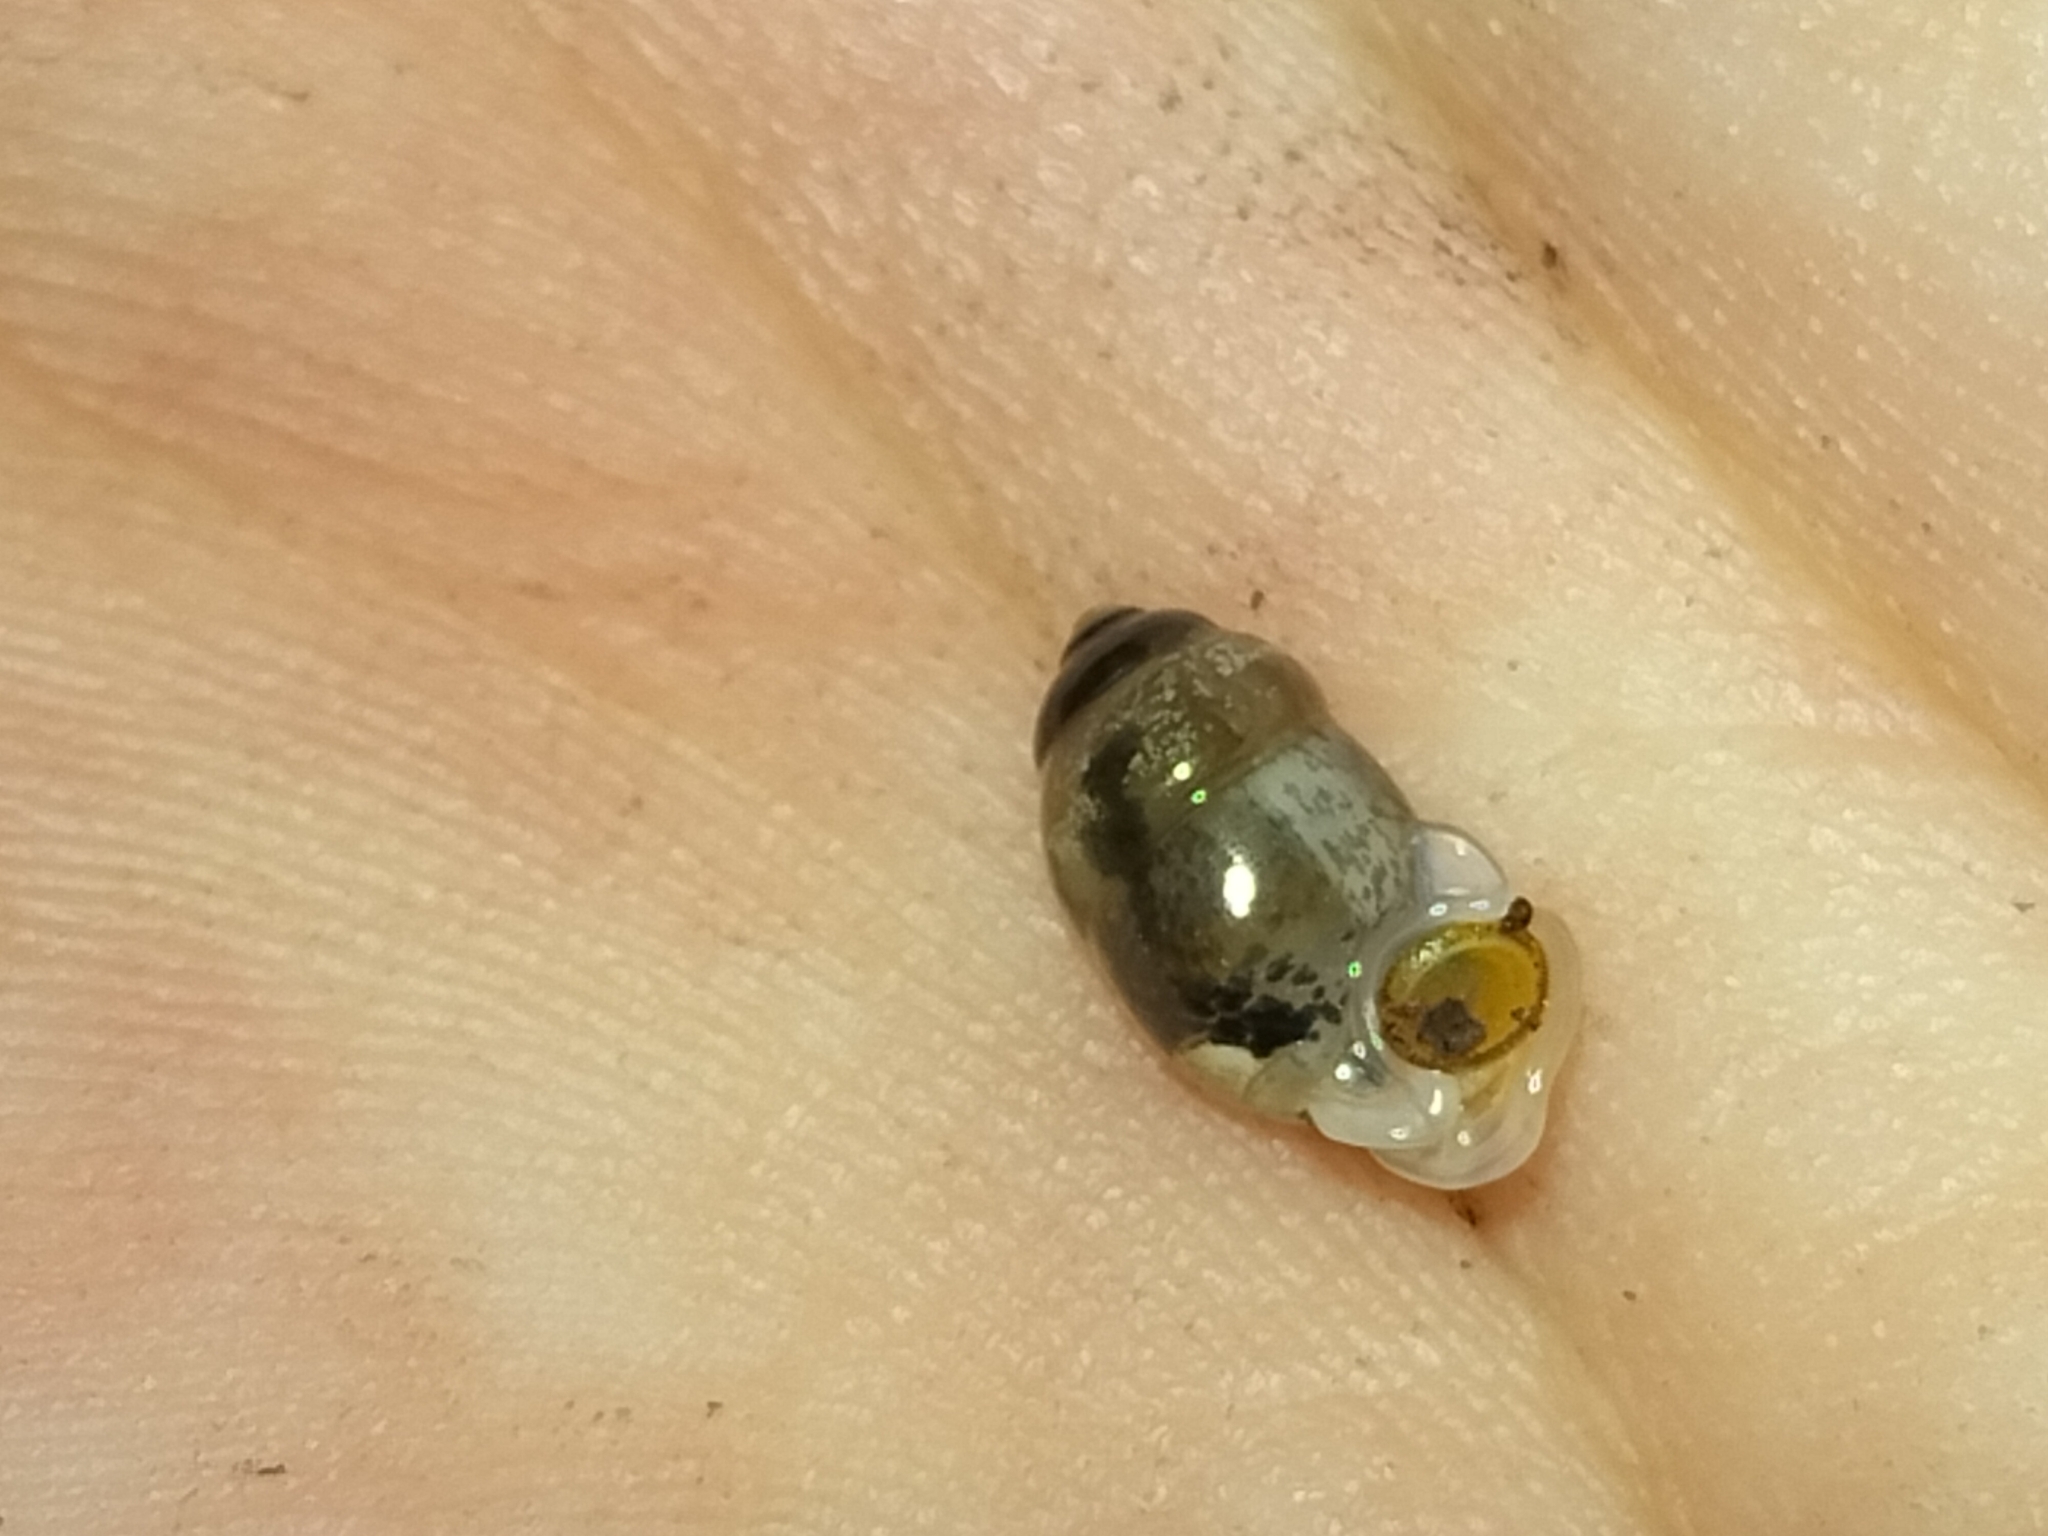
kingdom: Animalia
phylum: Mollusca
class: Gastropoda
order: Architaenioglossa
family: Pupinidae
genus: Signepupina
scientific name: Signepupina thomsoni
